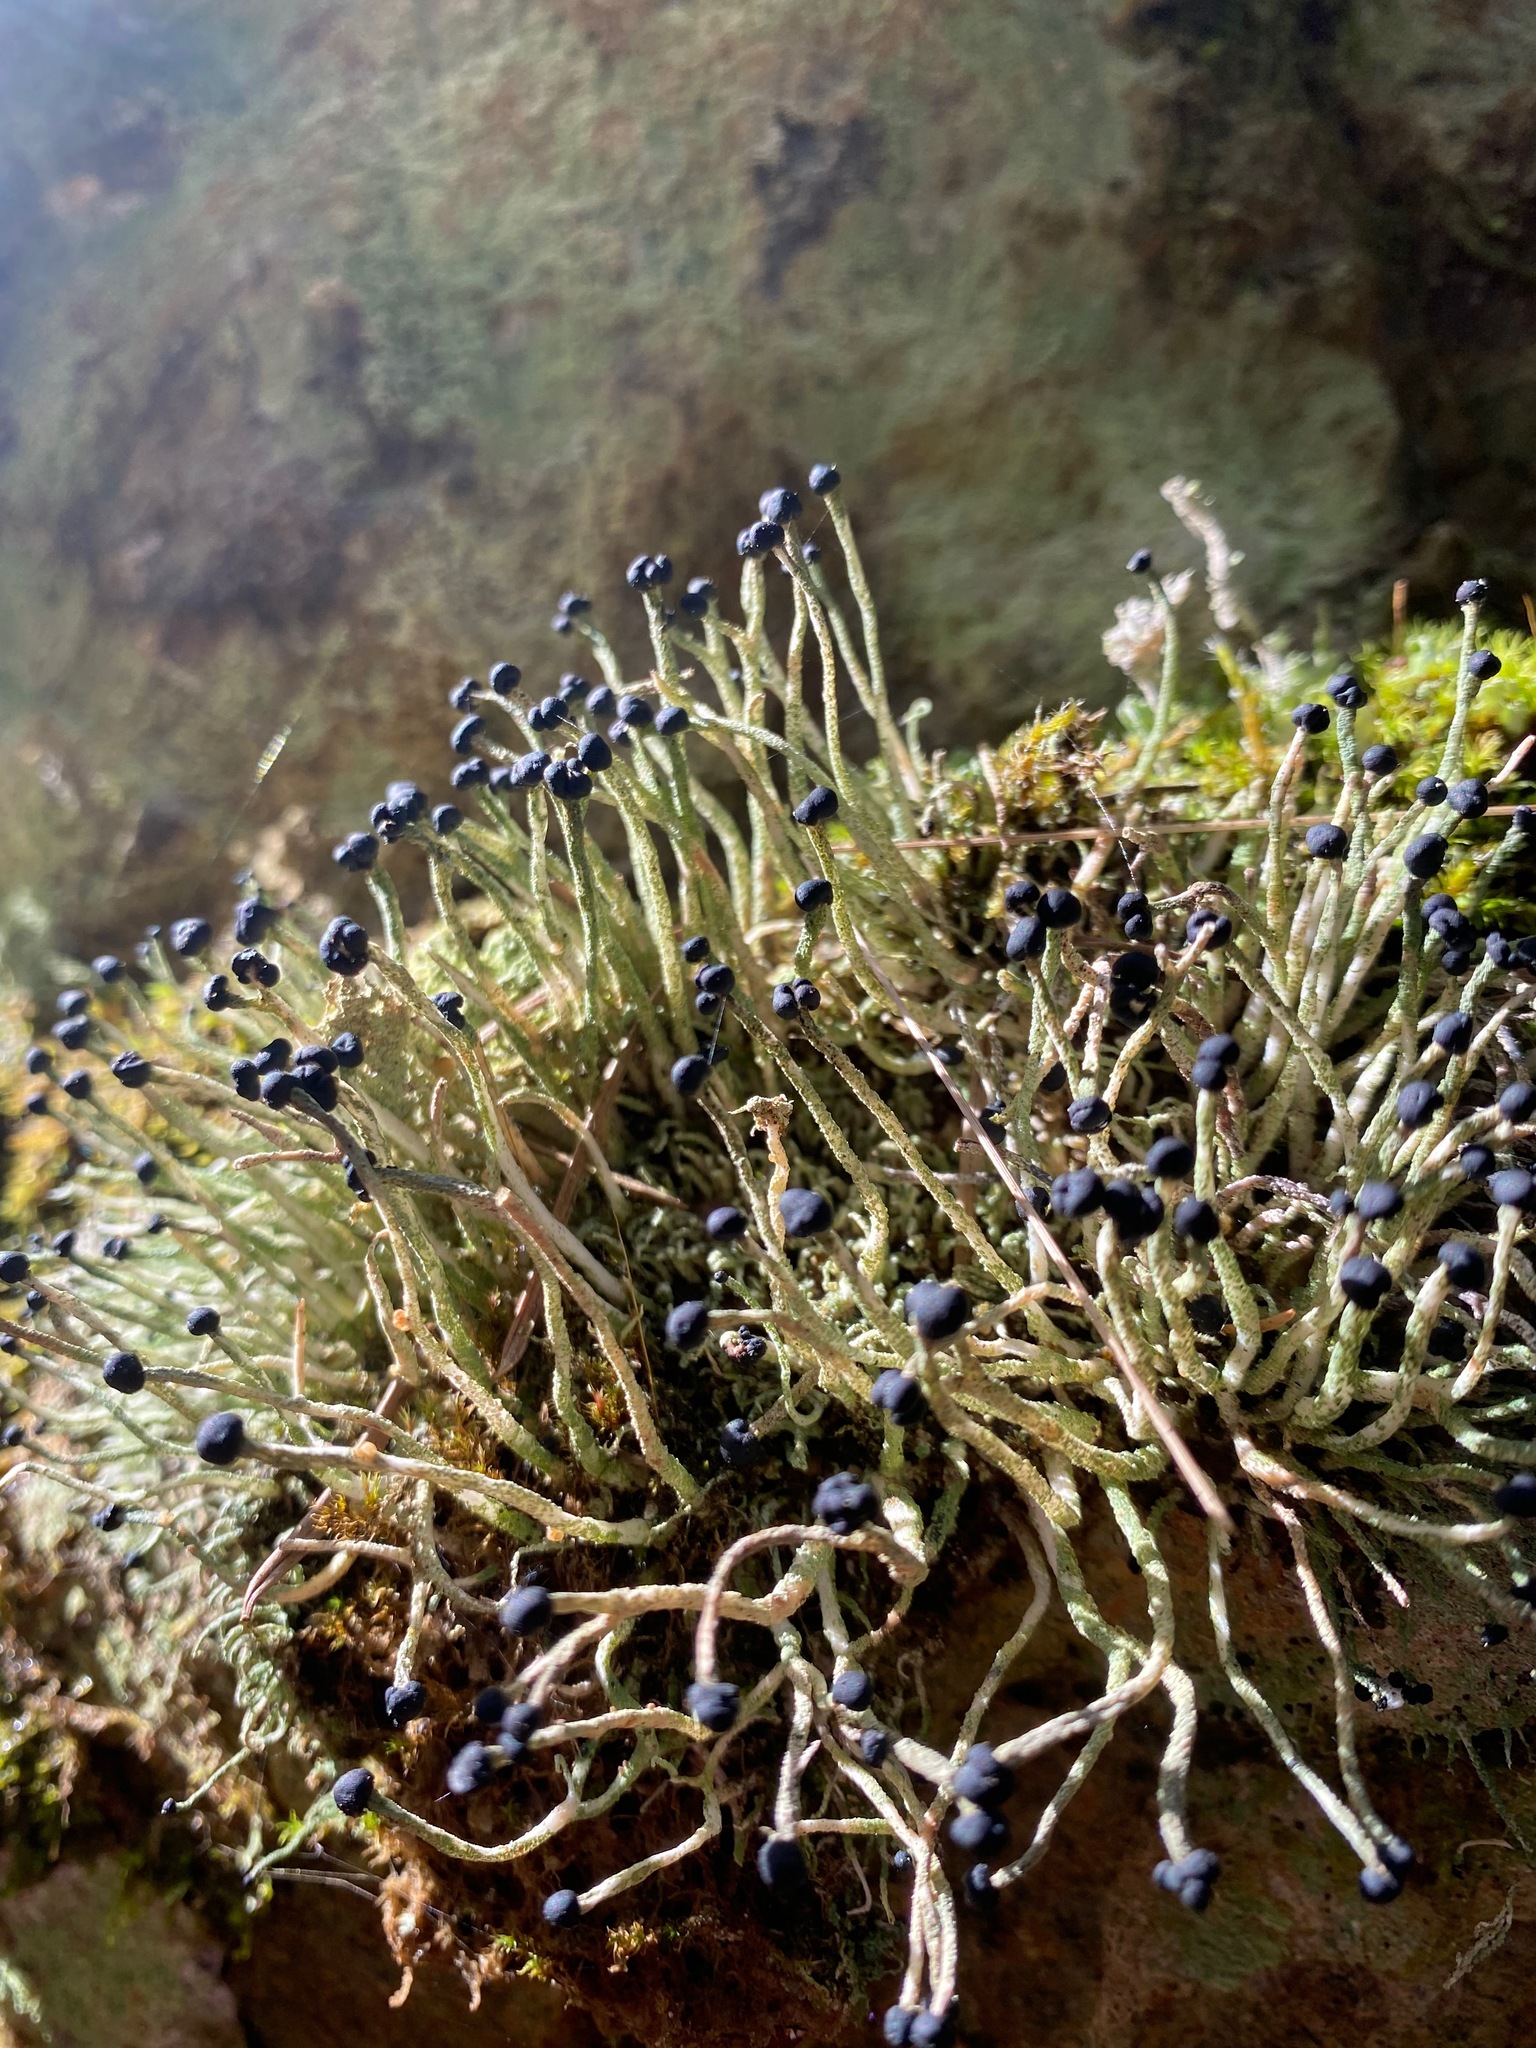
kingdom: Fungi
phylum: Ascomycota
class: Lecanoromycetes
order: Lecanorales
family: Cladoniaceae
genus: Pilophorus
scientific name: Pilophorus acicularis
